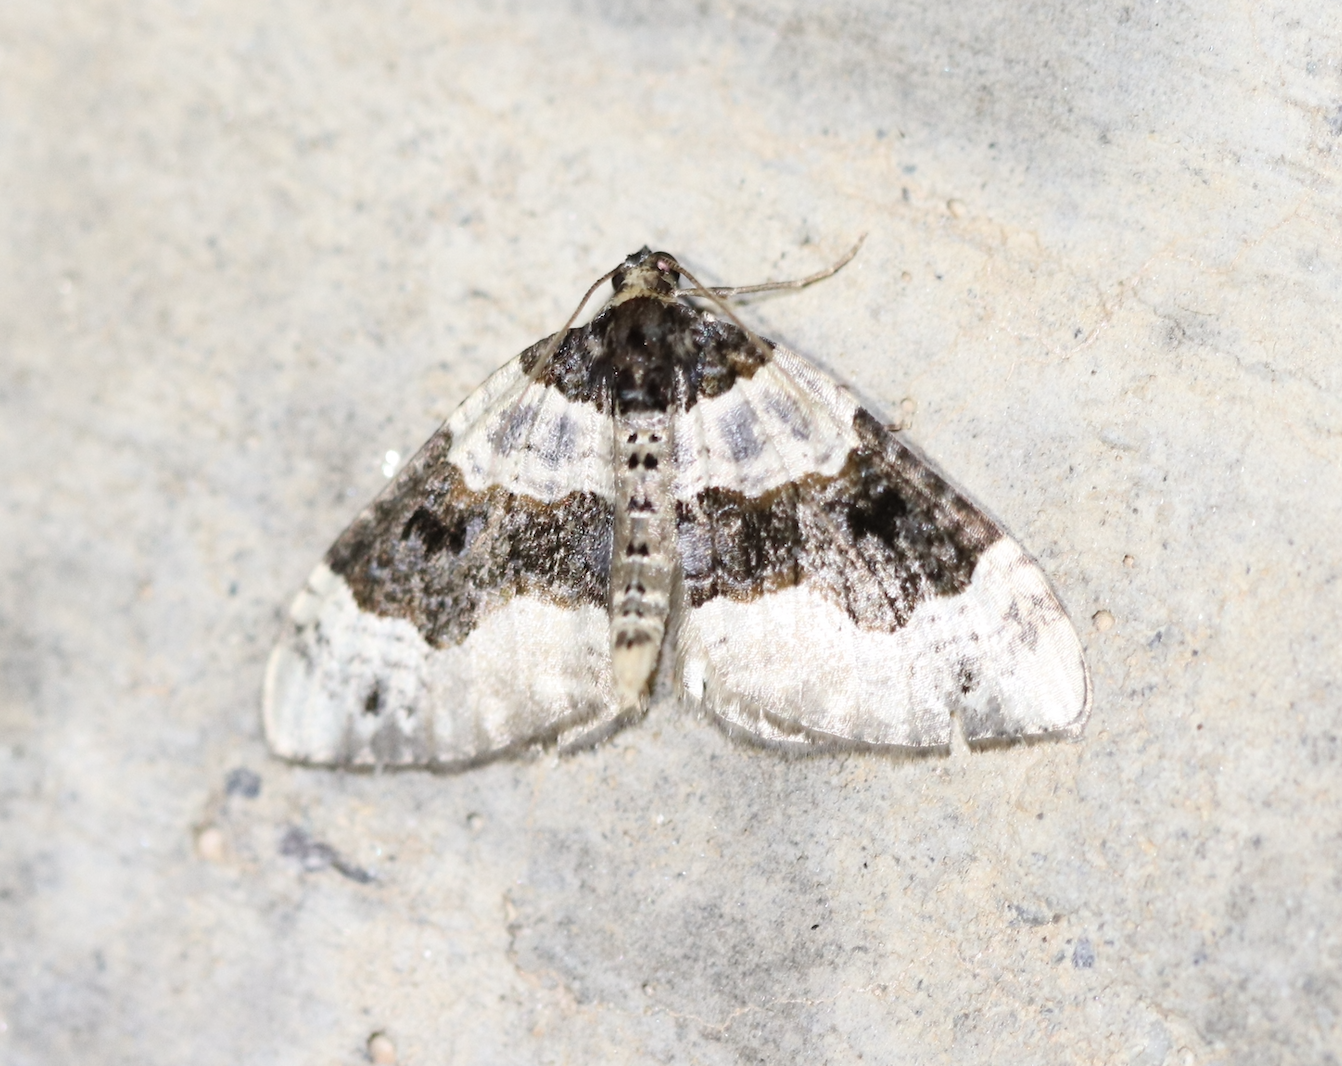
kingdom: Animalia
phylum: Arthropoda
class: Insecta
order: Lepidoptera
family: Geometridae
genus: Cosmorhoe
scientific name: Cosmorhoe ocellata
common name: Purple bar
